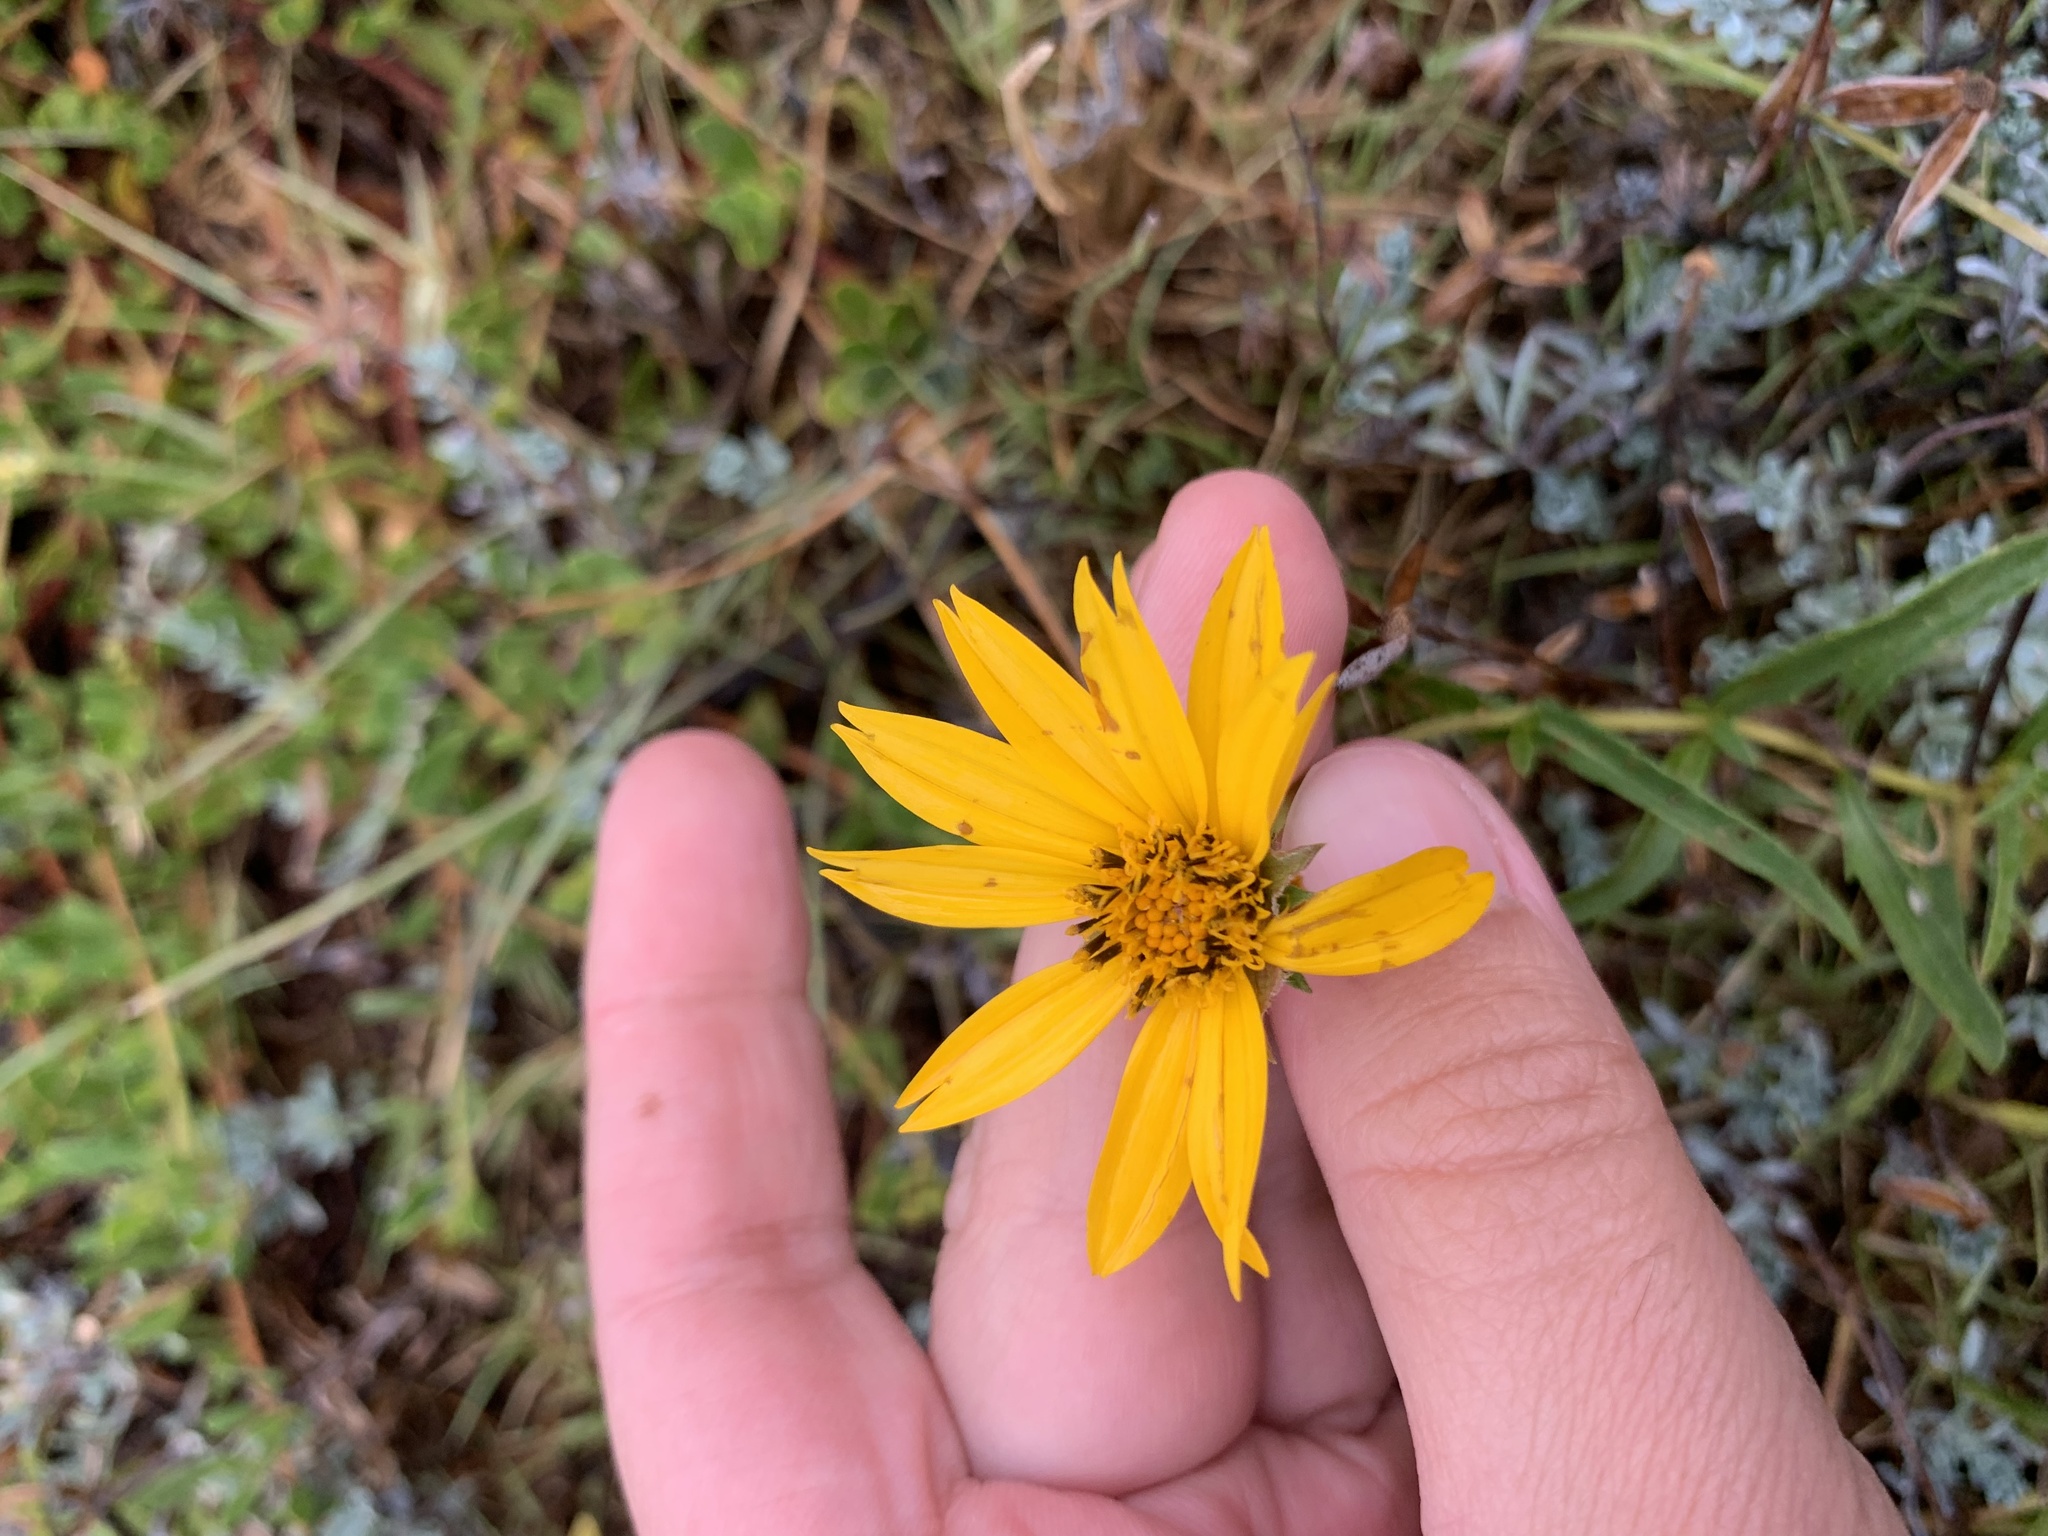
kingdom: Plantae
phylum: Tracheophyta
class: Magnoliopsida
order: Asterales
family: Asteraceae
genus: Wedelia
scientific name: Wedelia montevidensis
